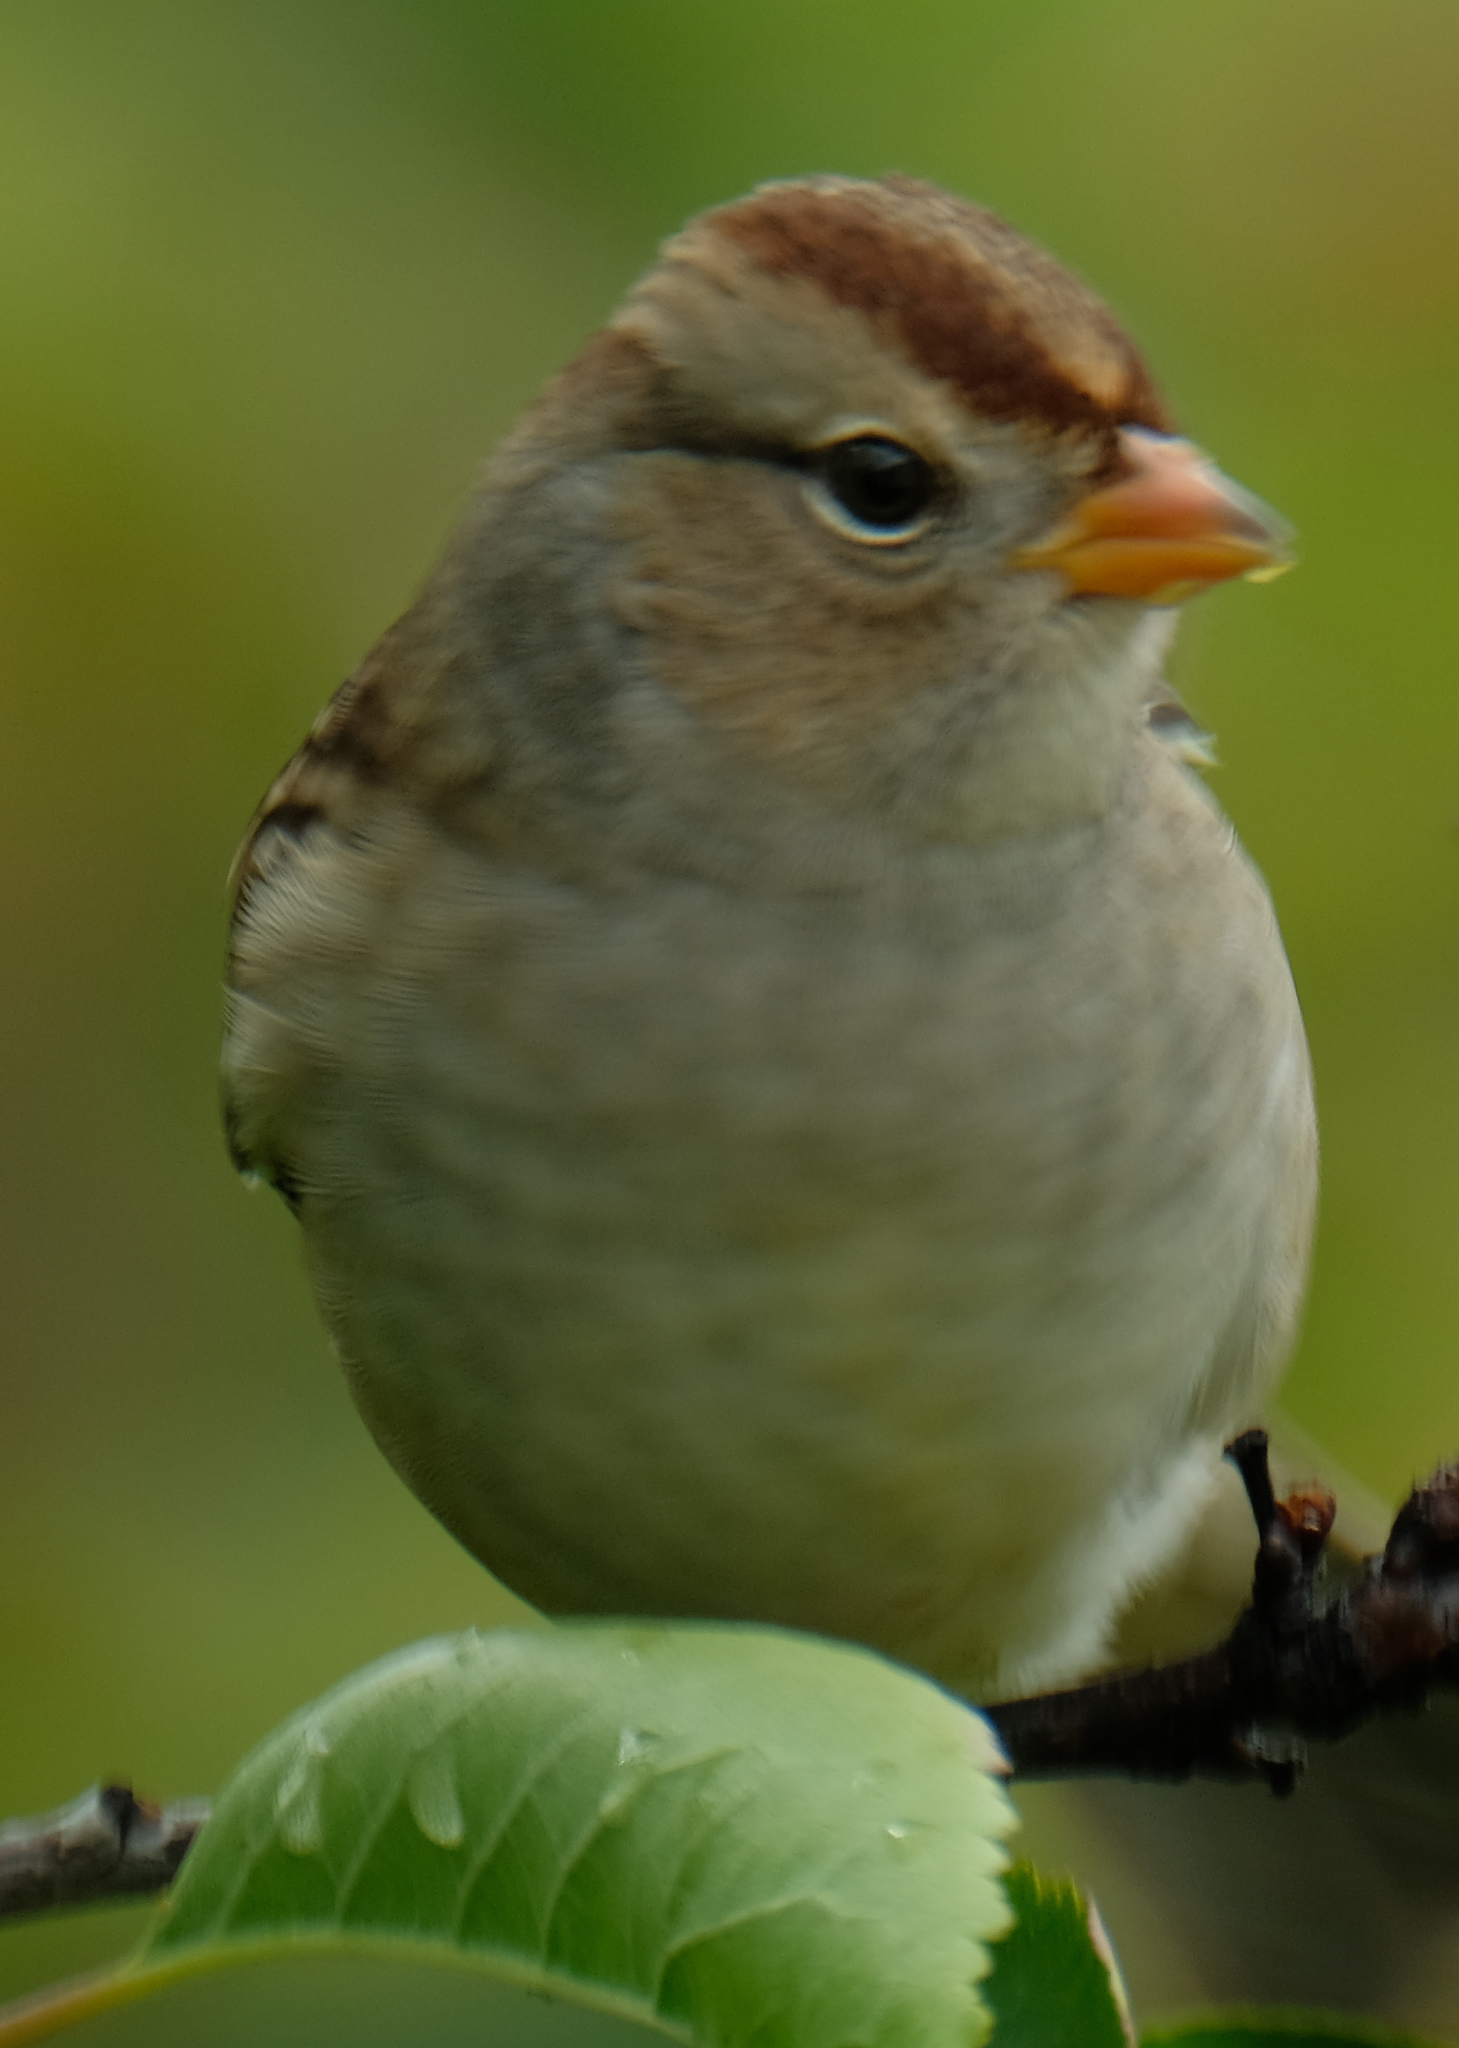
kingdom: Animalia
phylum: Chordata
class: Aves
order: Passeriformes
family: Passerellidae
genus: Zonotrichia
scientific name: Zonotrichia leucophrys
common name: White-crowned sparrow
